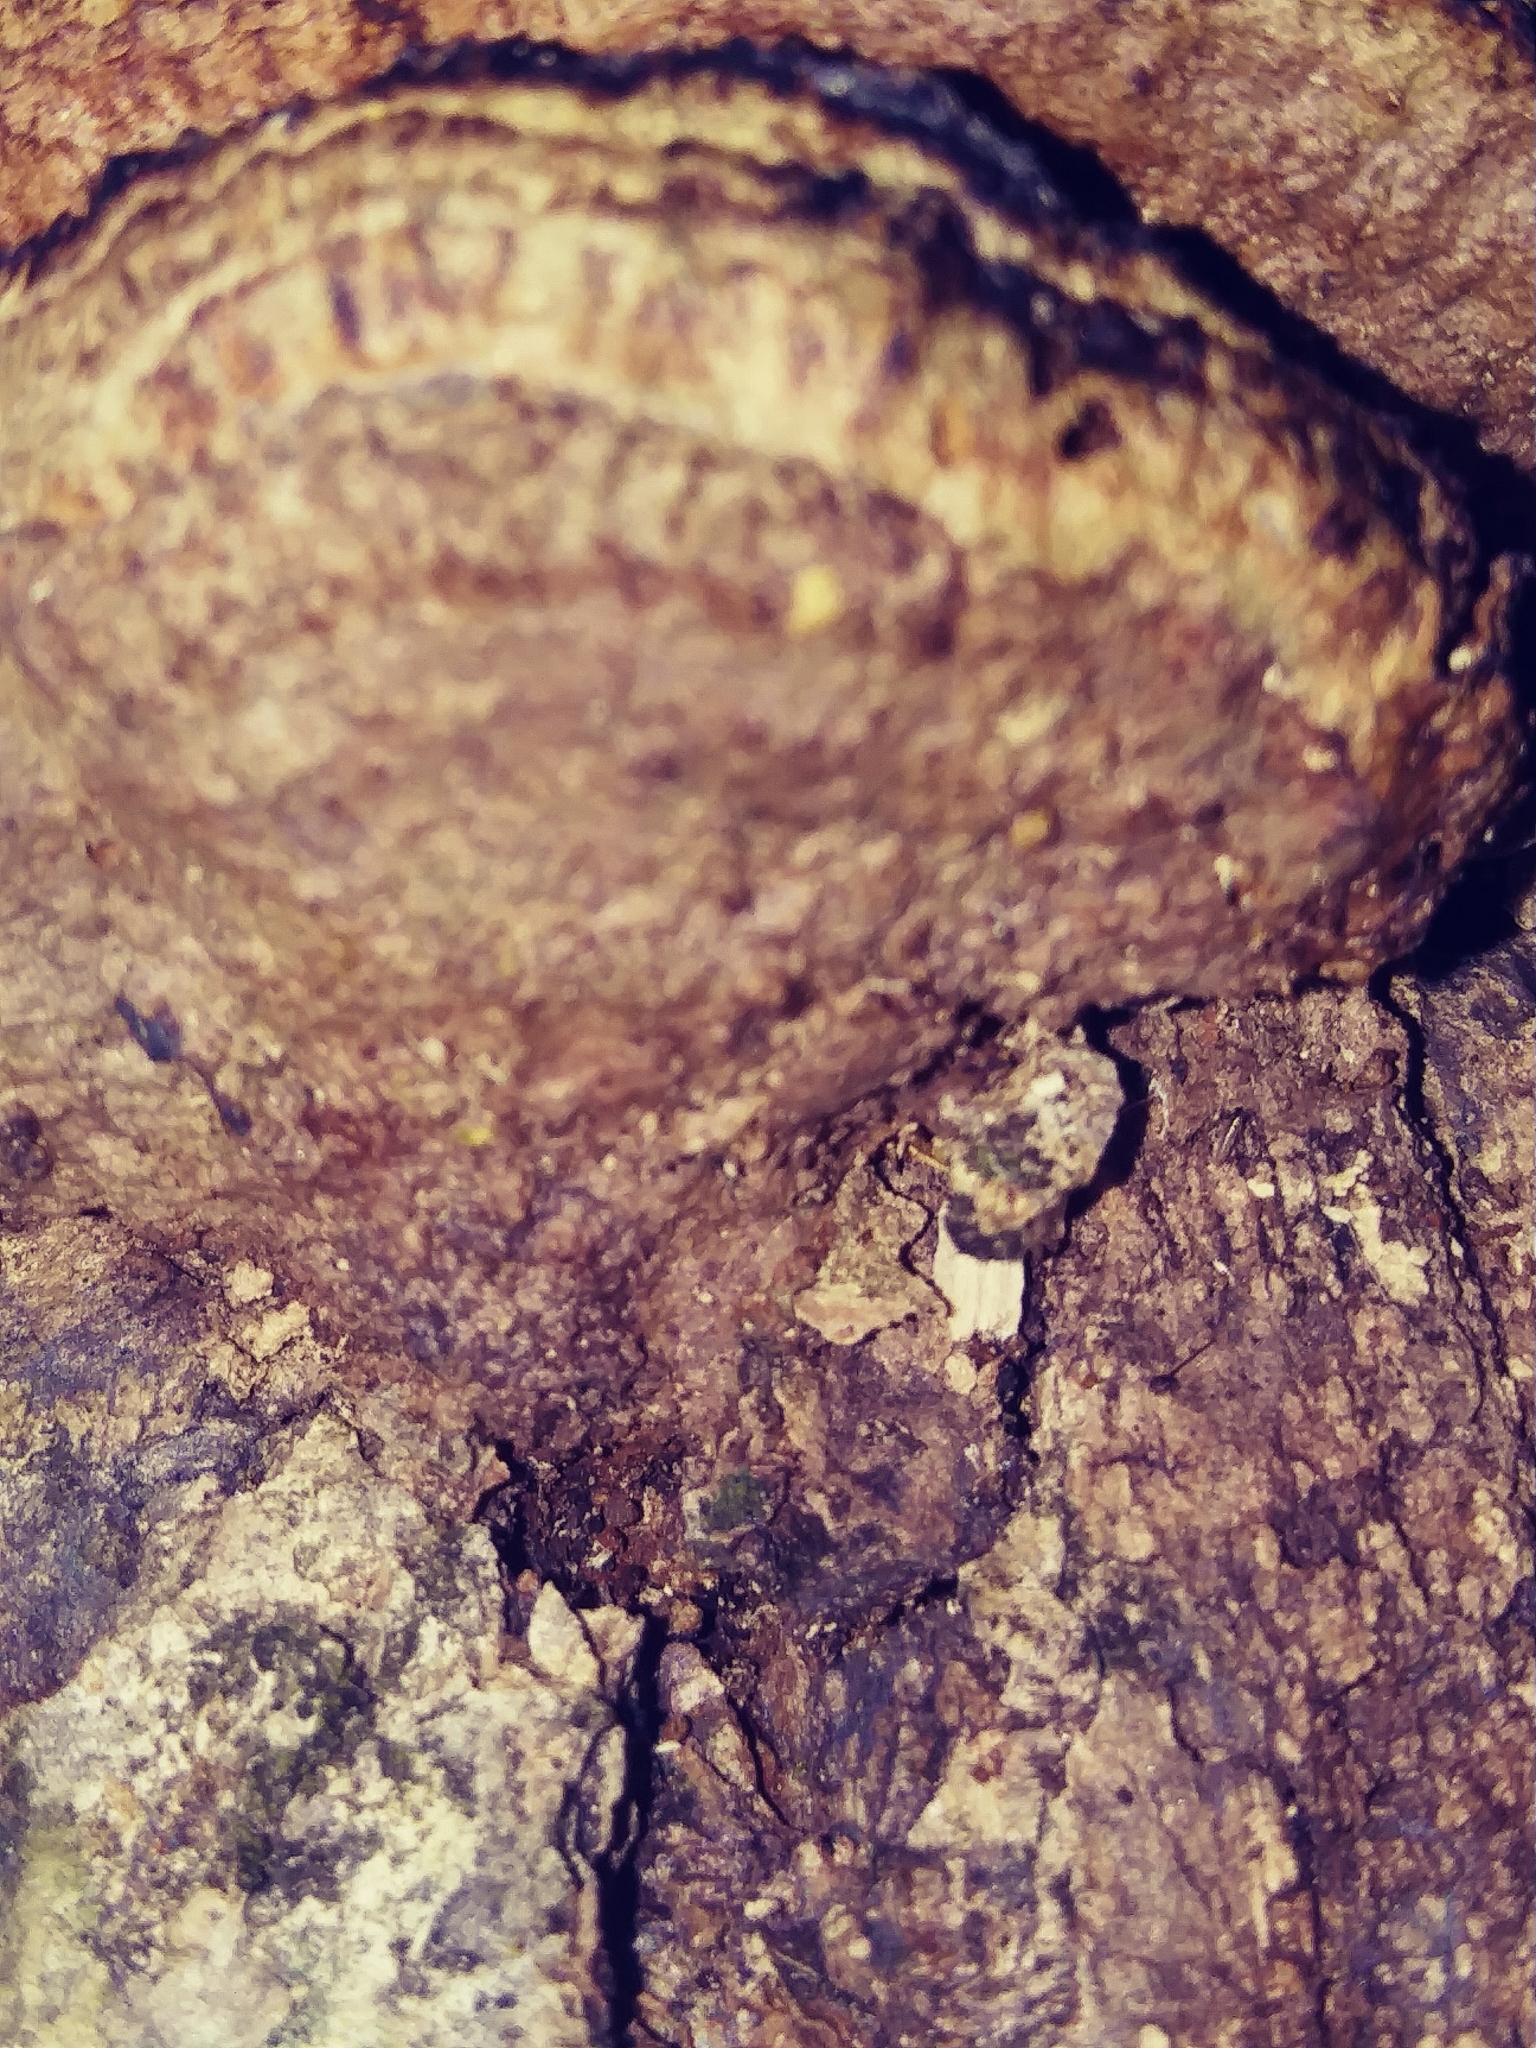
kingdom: Protozoa
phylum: Mycetozoa
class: Myxomycetes
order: Trichiales
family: Trichiaceae
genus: Oligonema
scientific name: Oligonema favogineum
